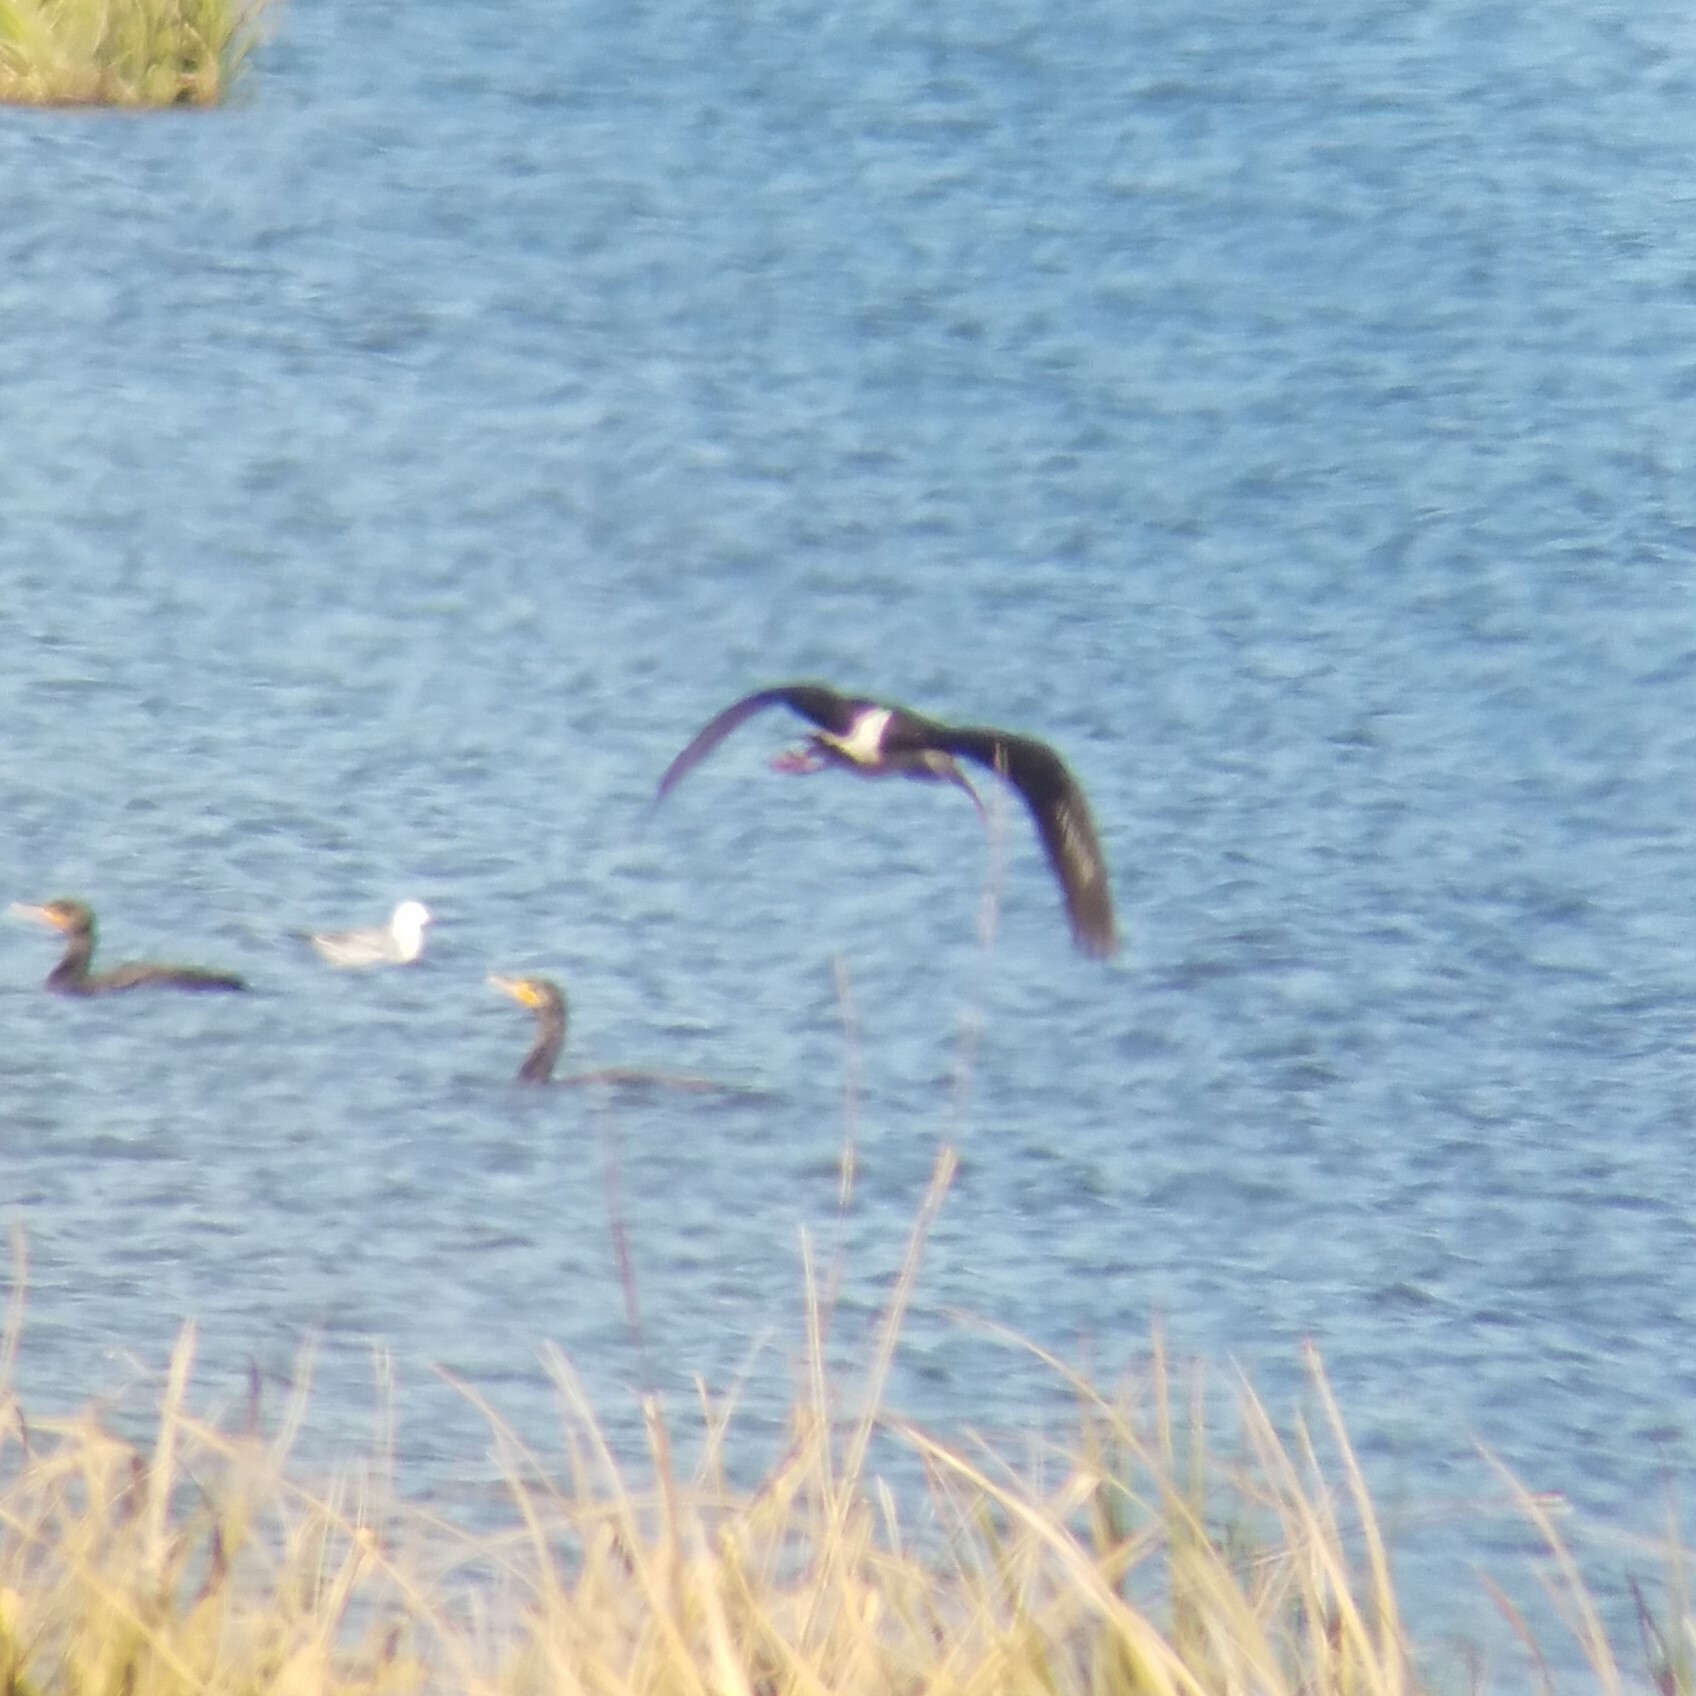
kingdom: Animalia
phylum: Chordata
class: Aves
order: Pelecaniformes
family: Threskiornithidae
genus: Eudocimus
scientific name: Eudocimus albus
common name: White ibis
